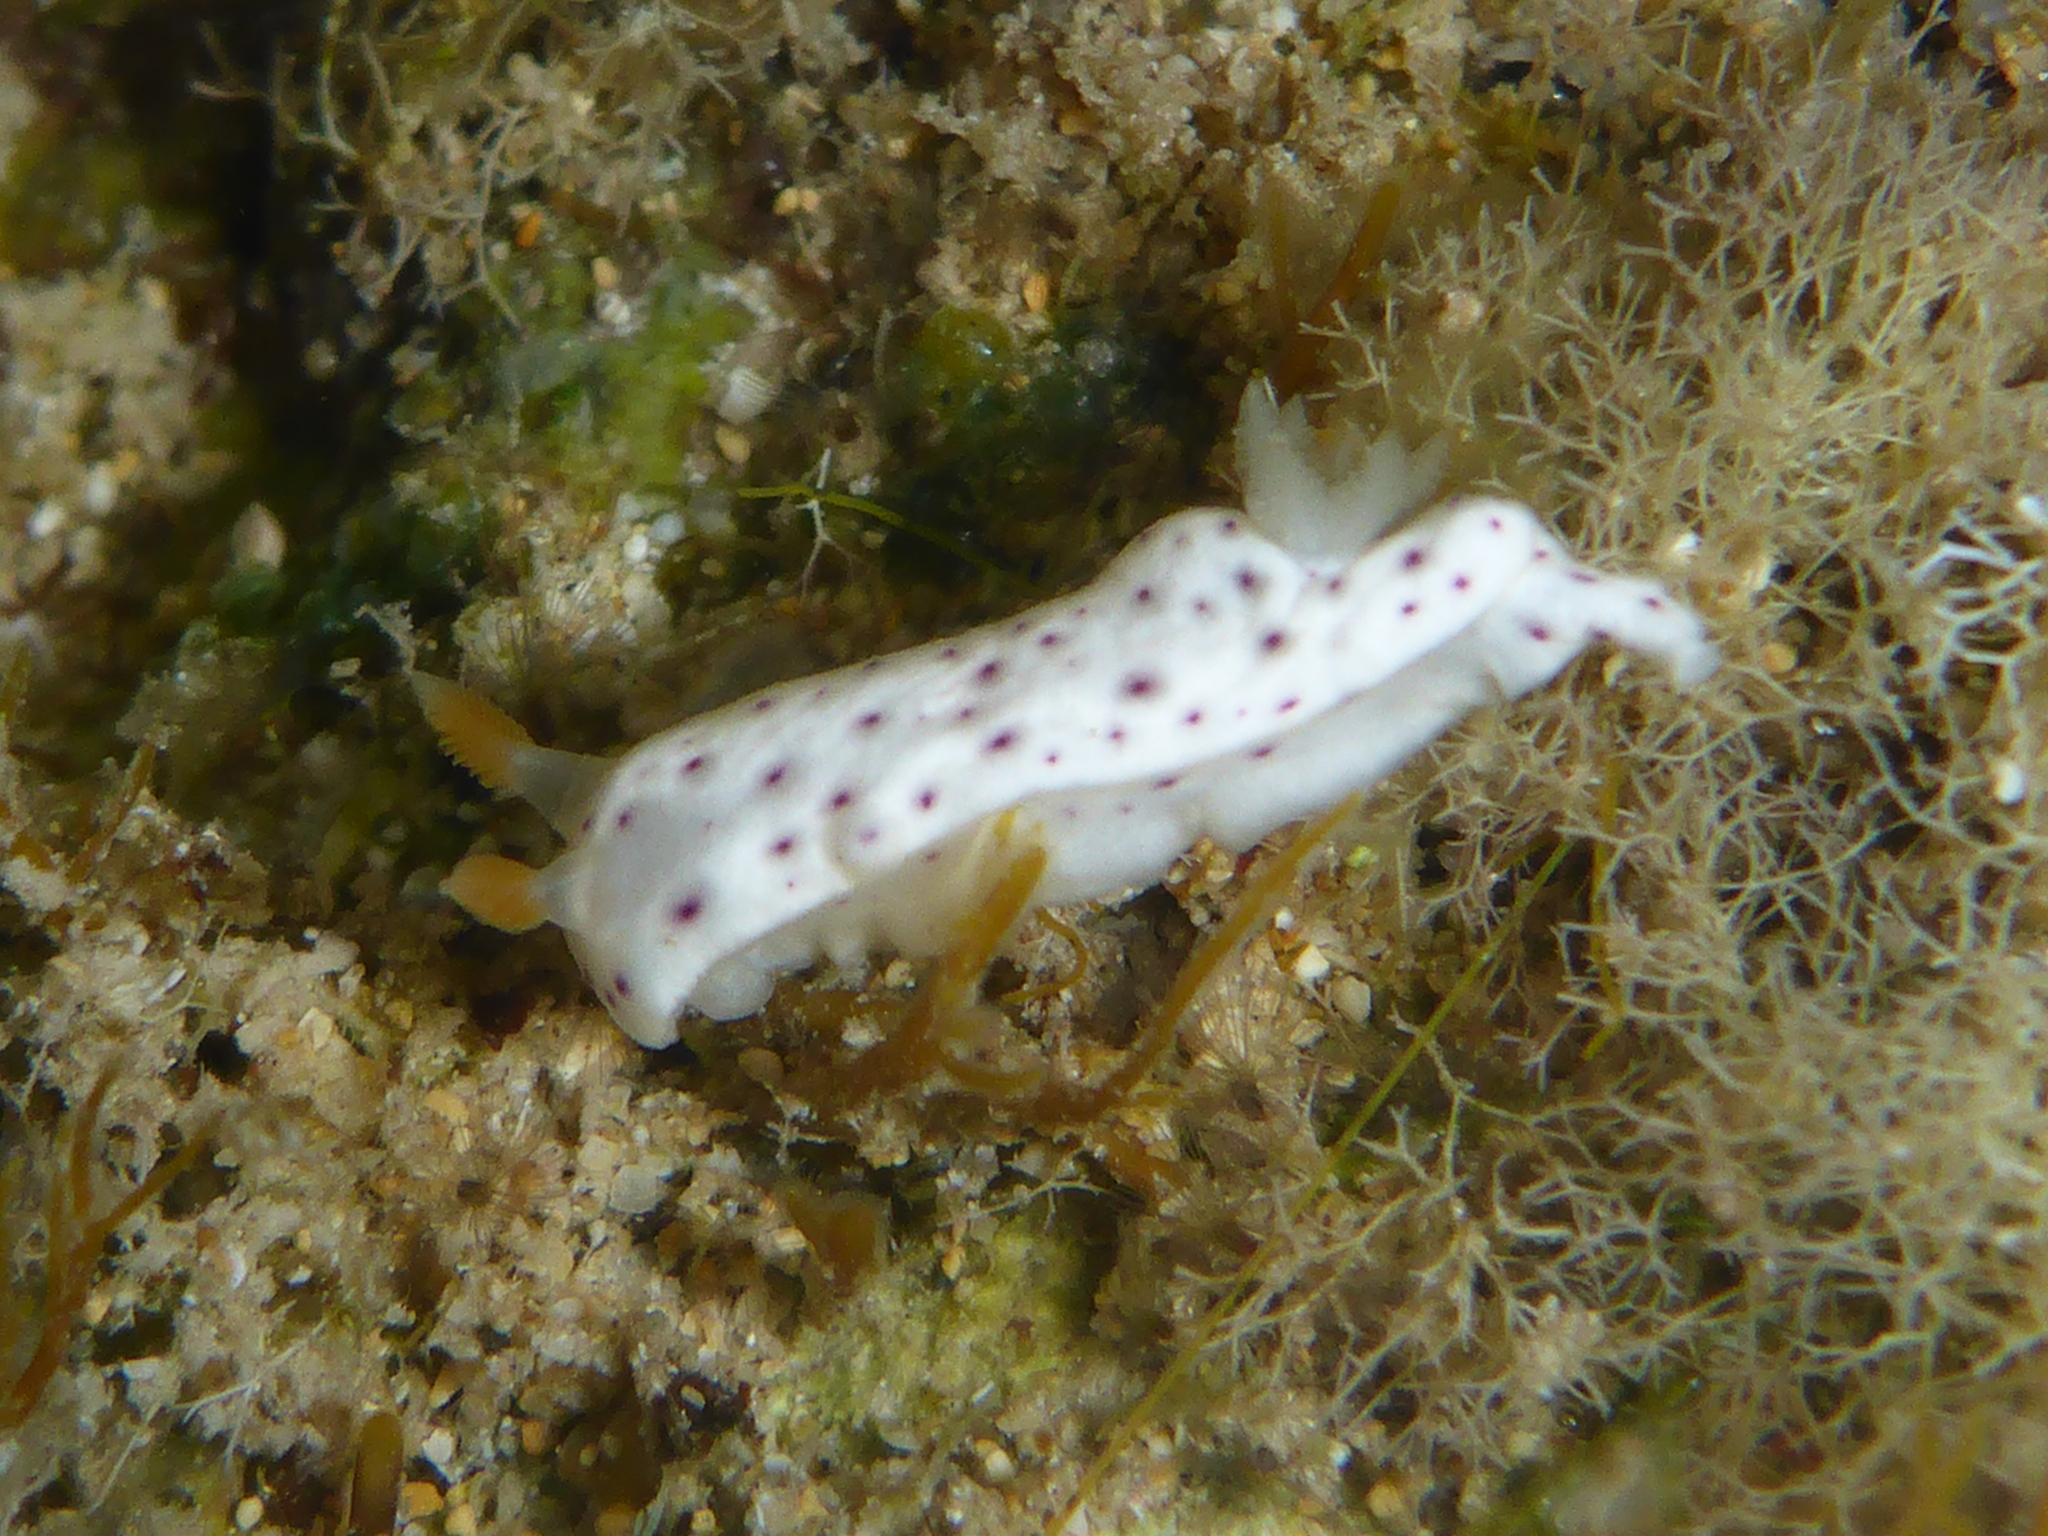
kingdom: Animalia
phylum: Mollusca
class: Gastropoda
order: Nudibranchia
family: Chromodorididae
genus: Chromodoris
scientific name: Chromodoris aspersa
